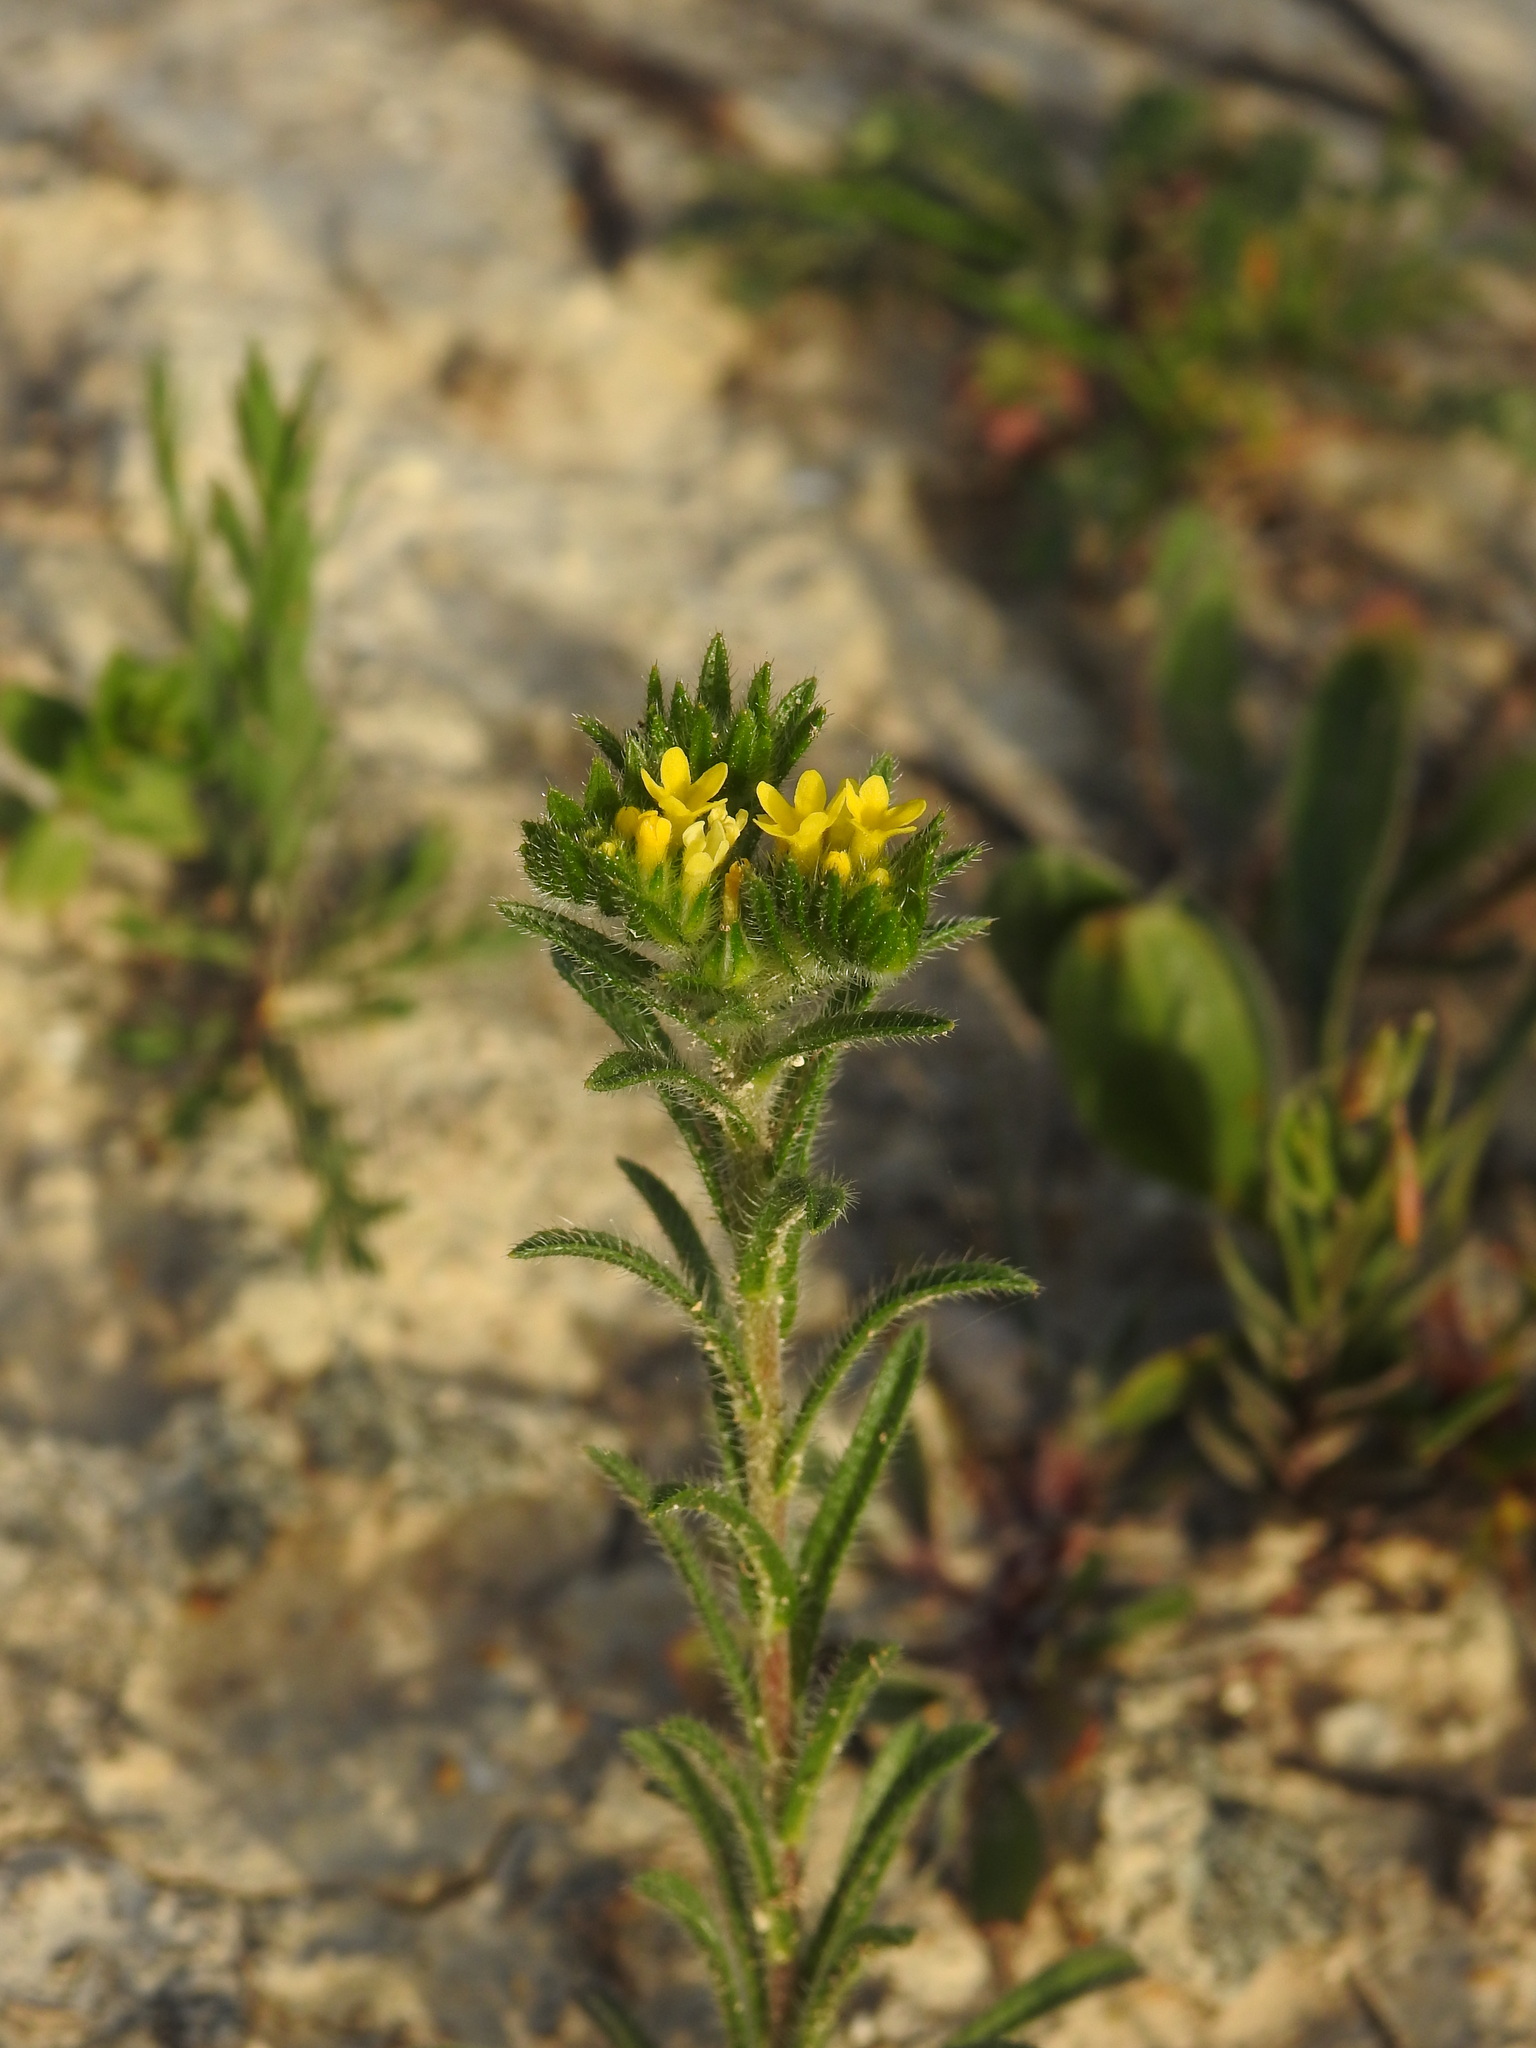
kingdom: Plantae
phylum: Tracheophyta
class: Magnoliopsida
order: Boraginales
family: Boraginaceae
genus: Neatostema
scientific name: Neatostema apulum
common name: Hairy sheepweed
